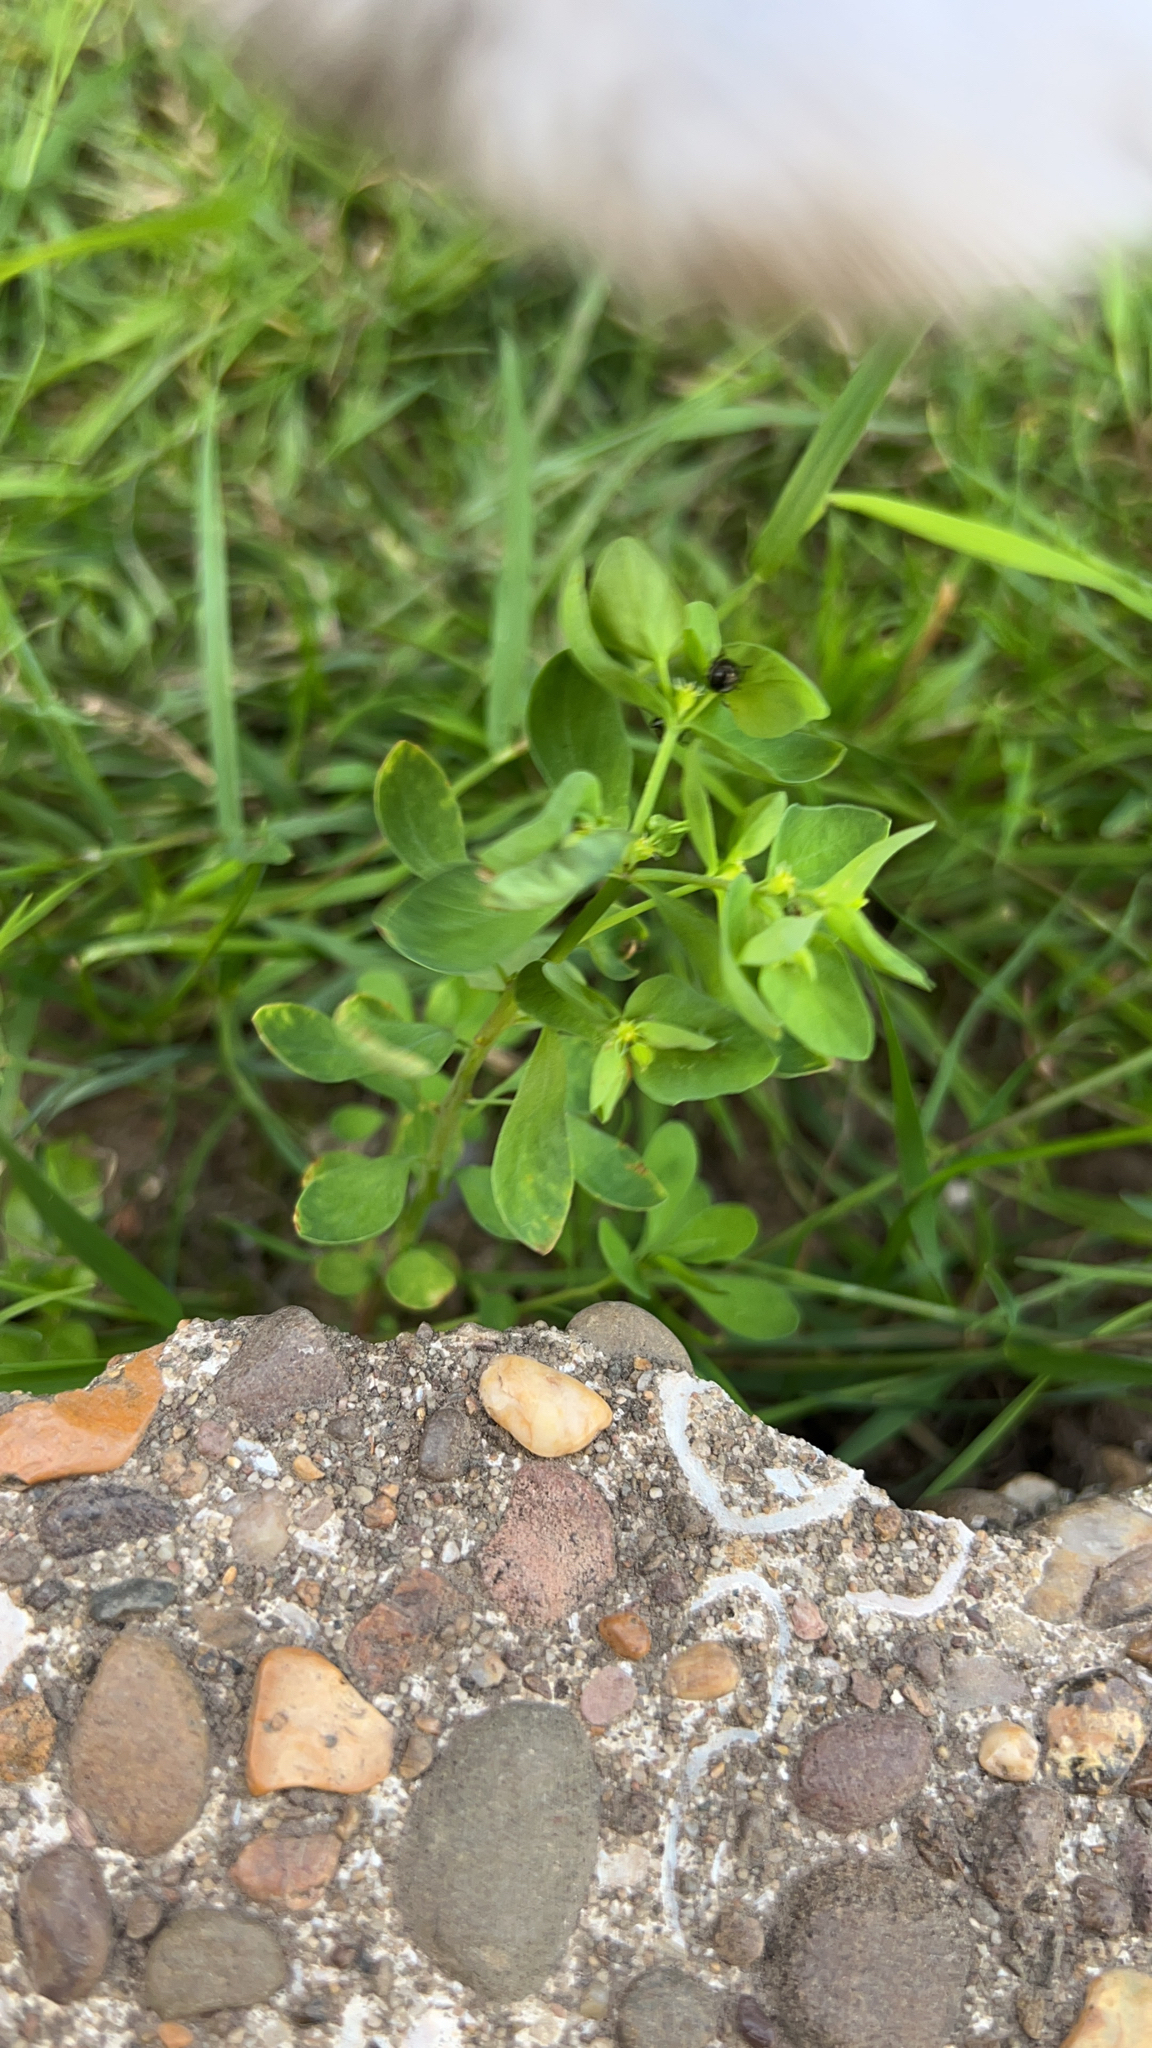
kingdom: Plantae
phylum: Tracheophyta
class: Magnoliopsida
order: Malpighiales
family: Euphorbiaceae
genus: Euphorbia
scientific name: Euphorbia peplus
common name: Petty spurge
